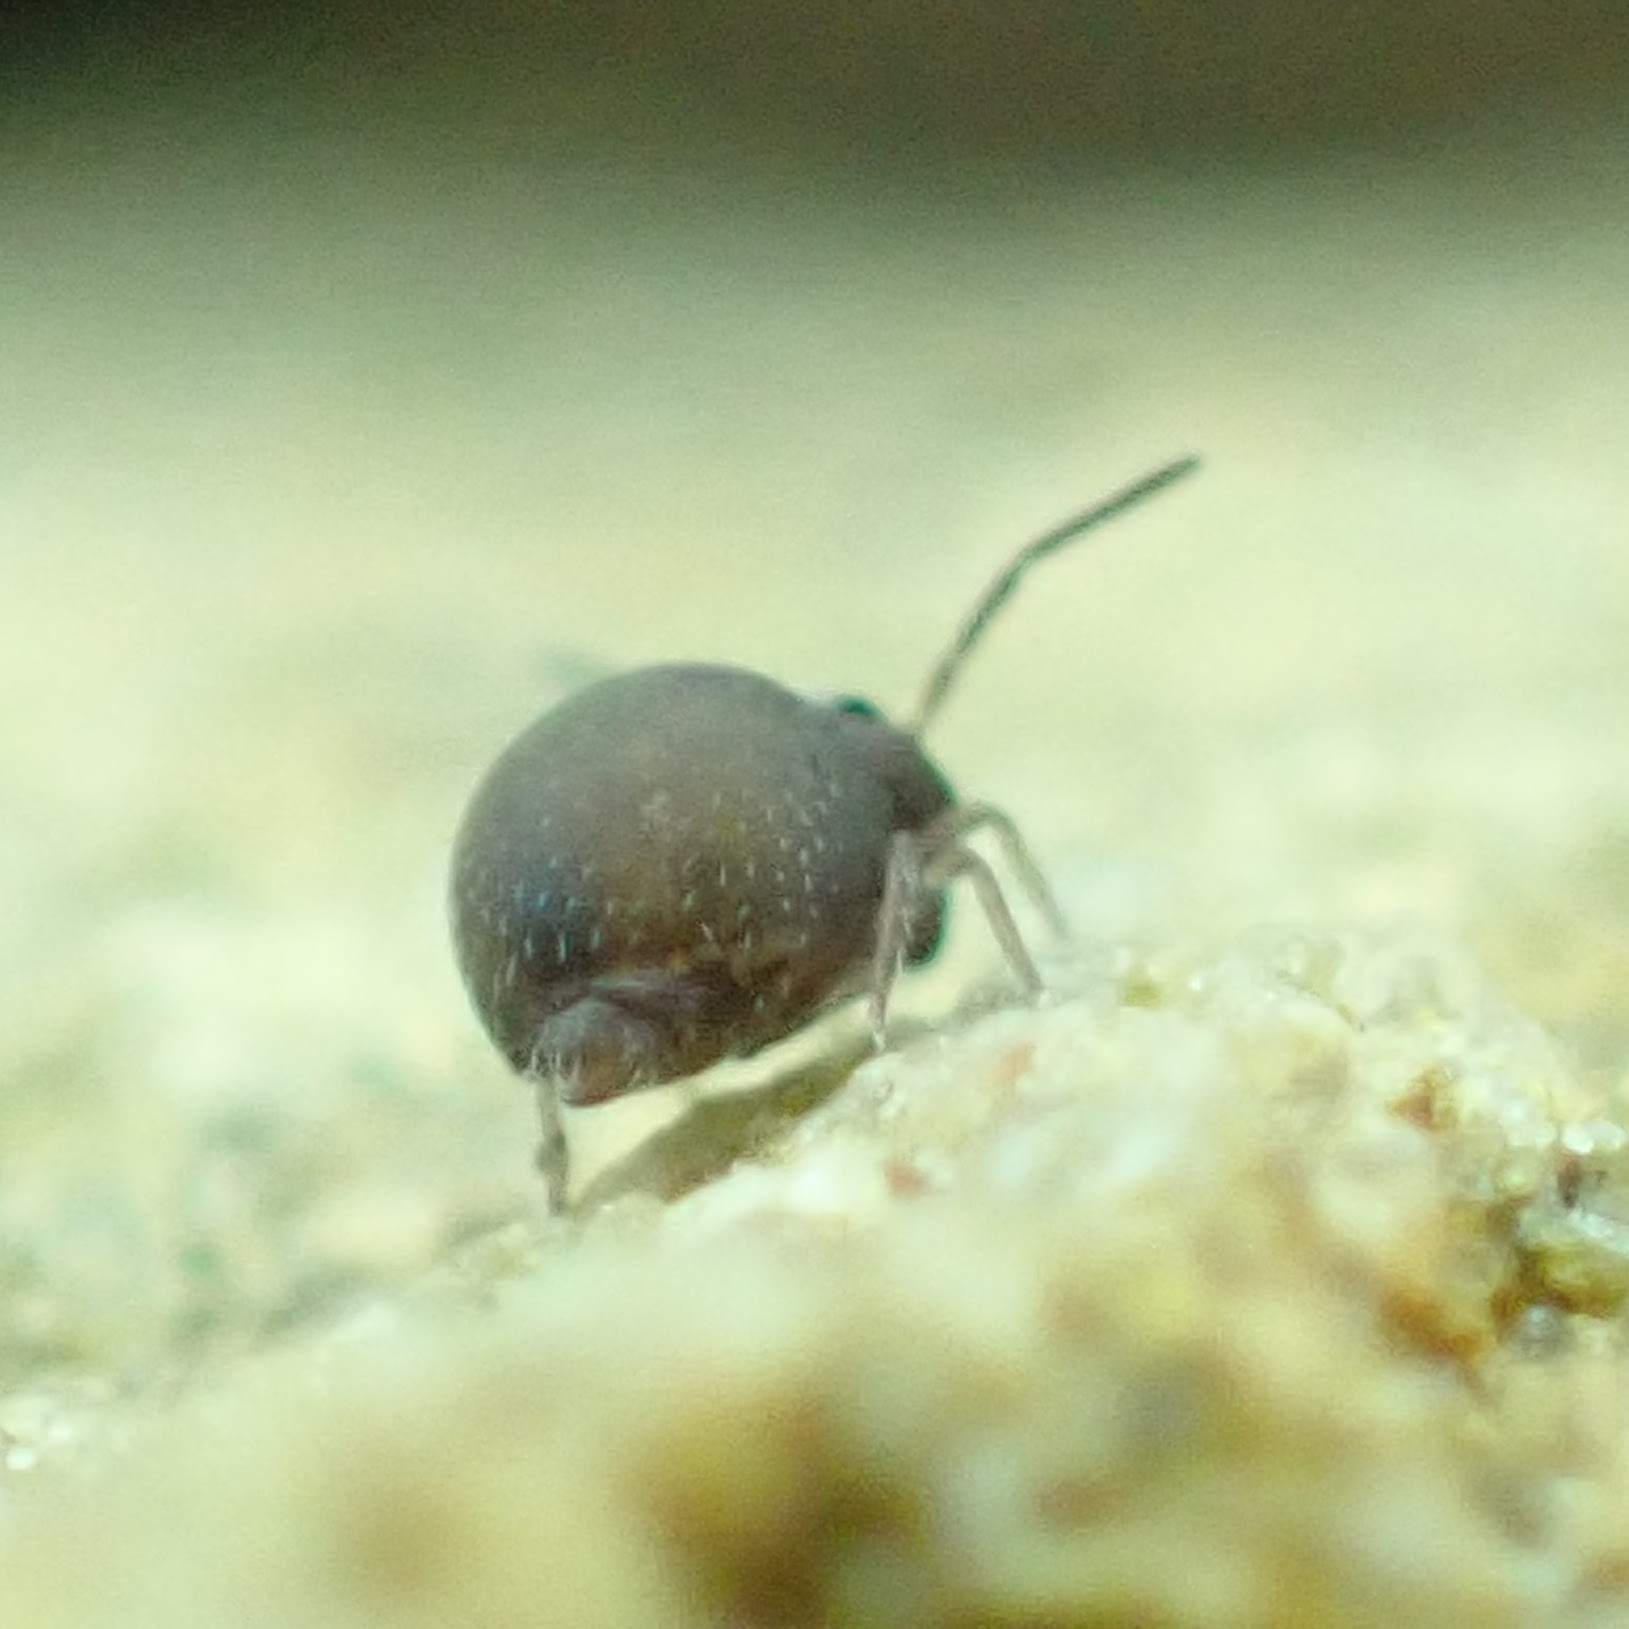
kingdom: Animalia
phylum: Arthropoda
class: Collembola
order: Symphypleona
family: Bourletiellidae
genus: Bourletiella
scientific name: Bourletiella hortensis
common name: Garden springtail
